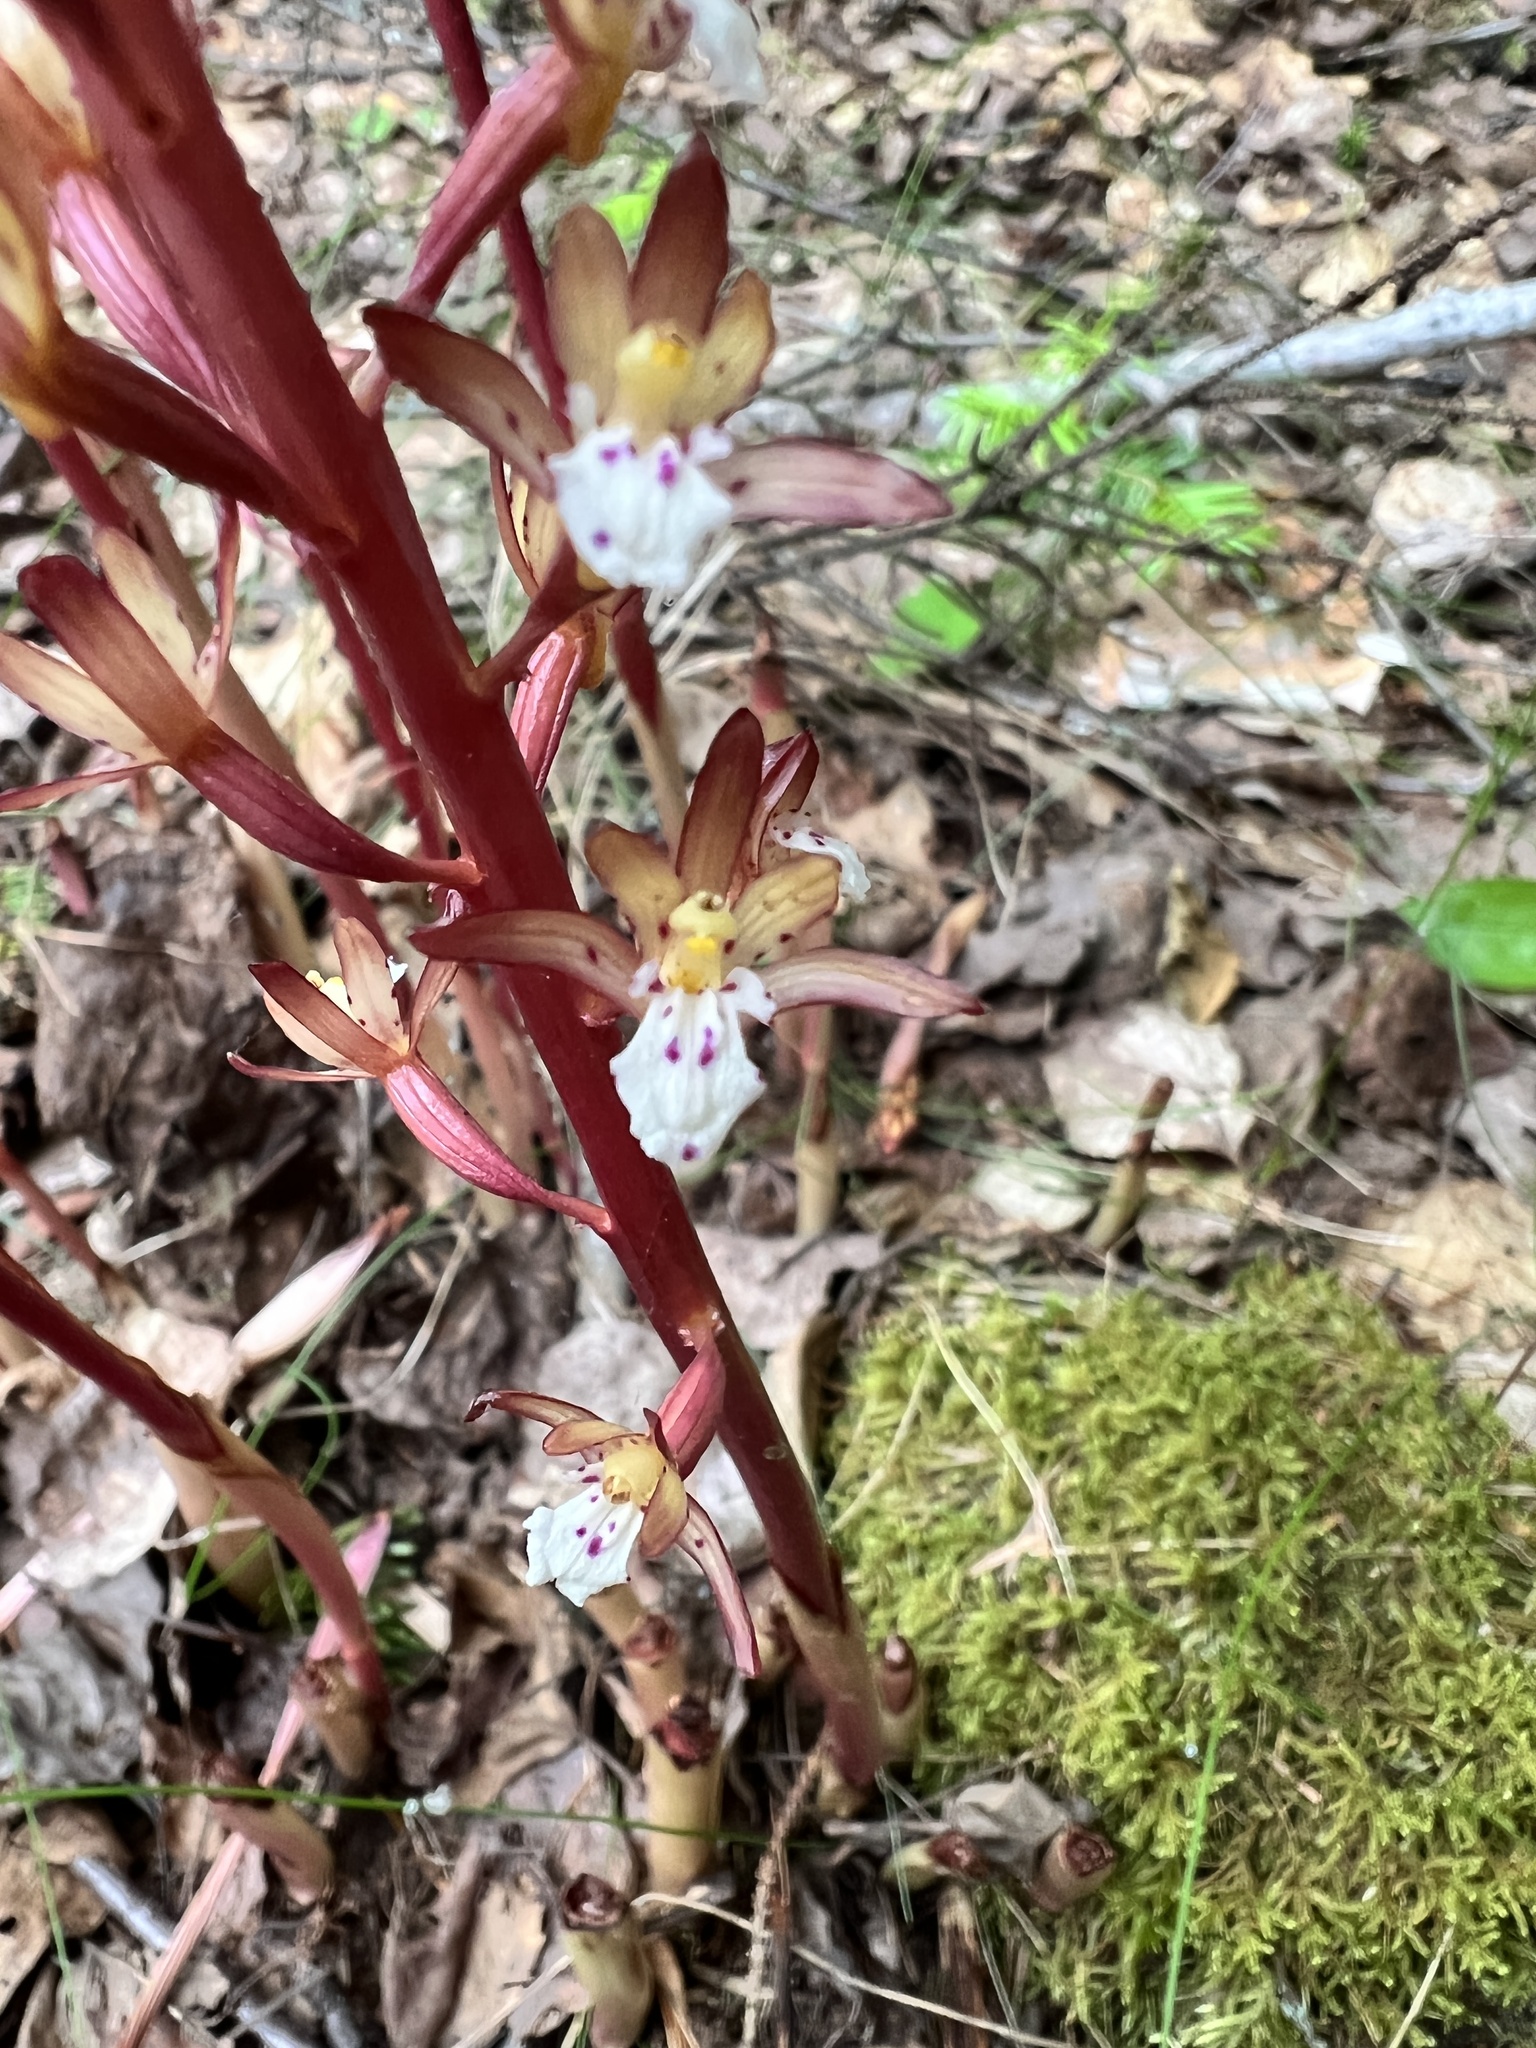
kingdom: Plantae
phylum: Tracheophyta
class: Liliopsida
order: Asparagales
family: Orchidaceae
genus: Corallorhiza
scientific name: Corallorhiza maculata
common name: Spotted coralroot
